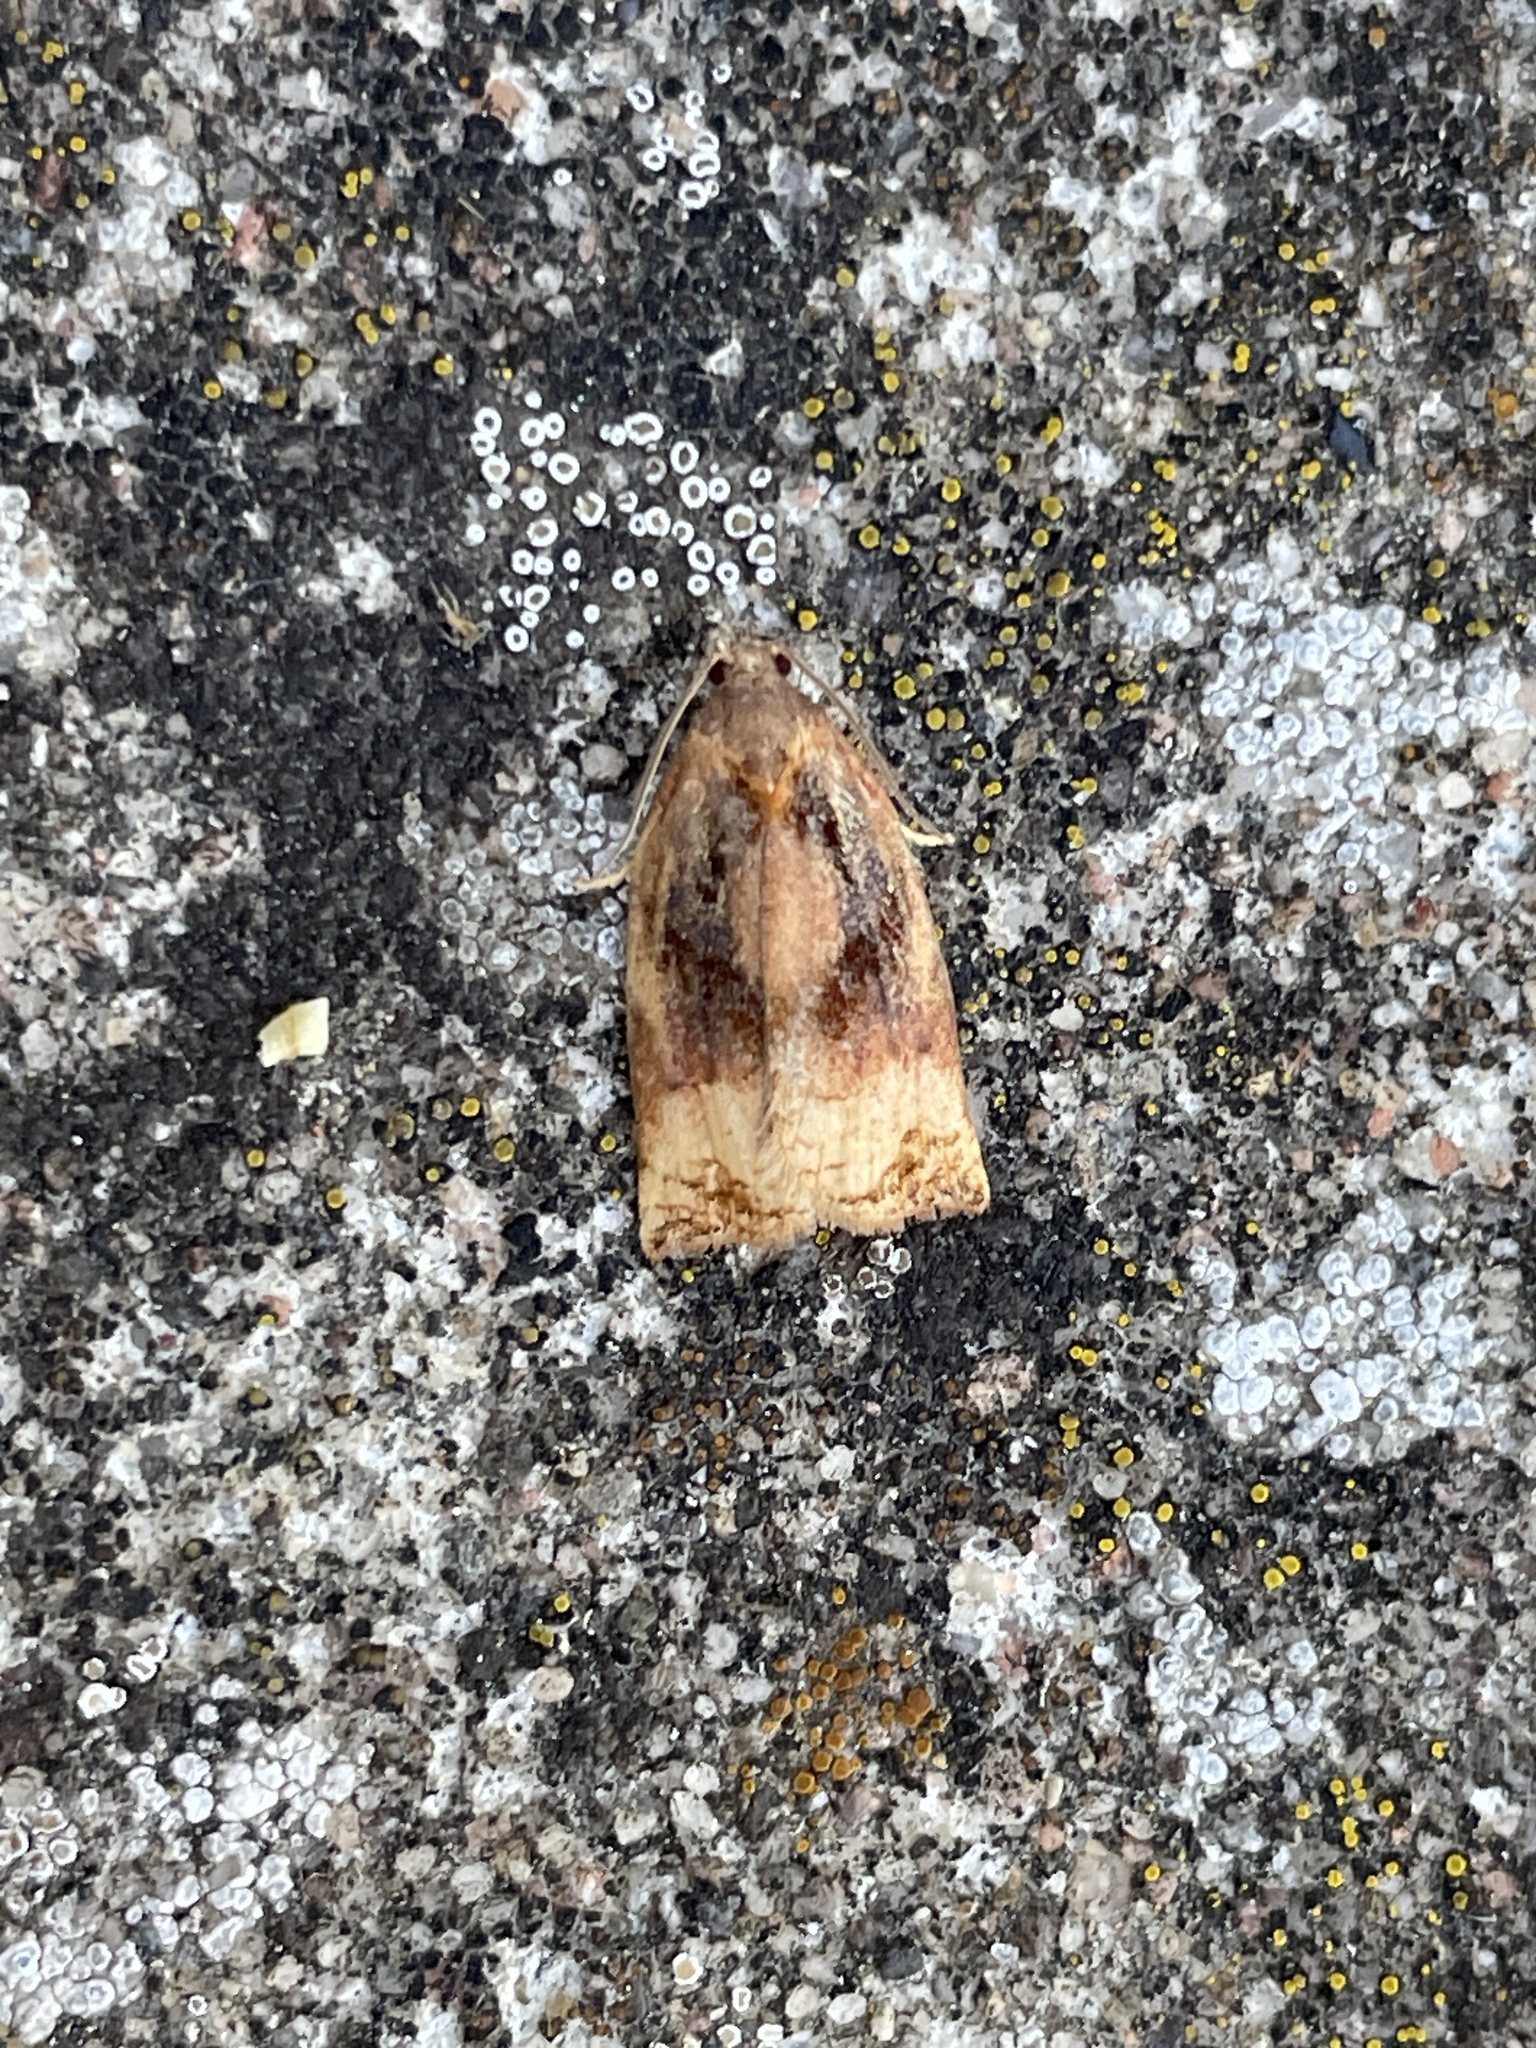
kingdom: Animalia
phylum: Arthropoda
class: Insecta
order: Lepidoptera
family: Tortricidae
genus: Archips
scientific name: Archips podana
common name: Large fruit-tree tortrix
